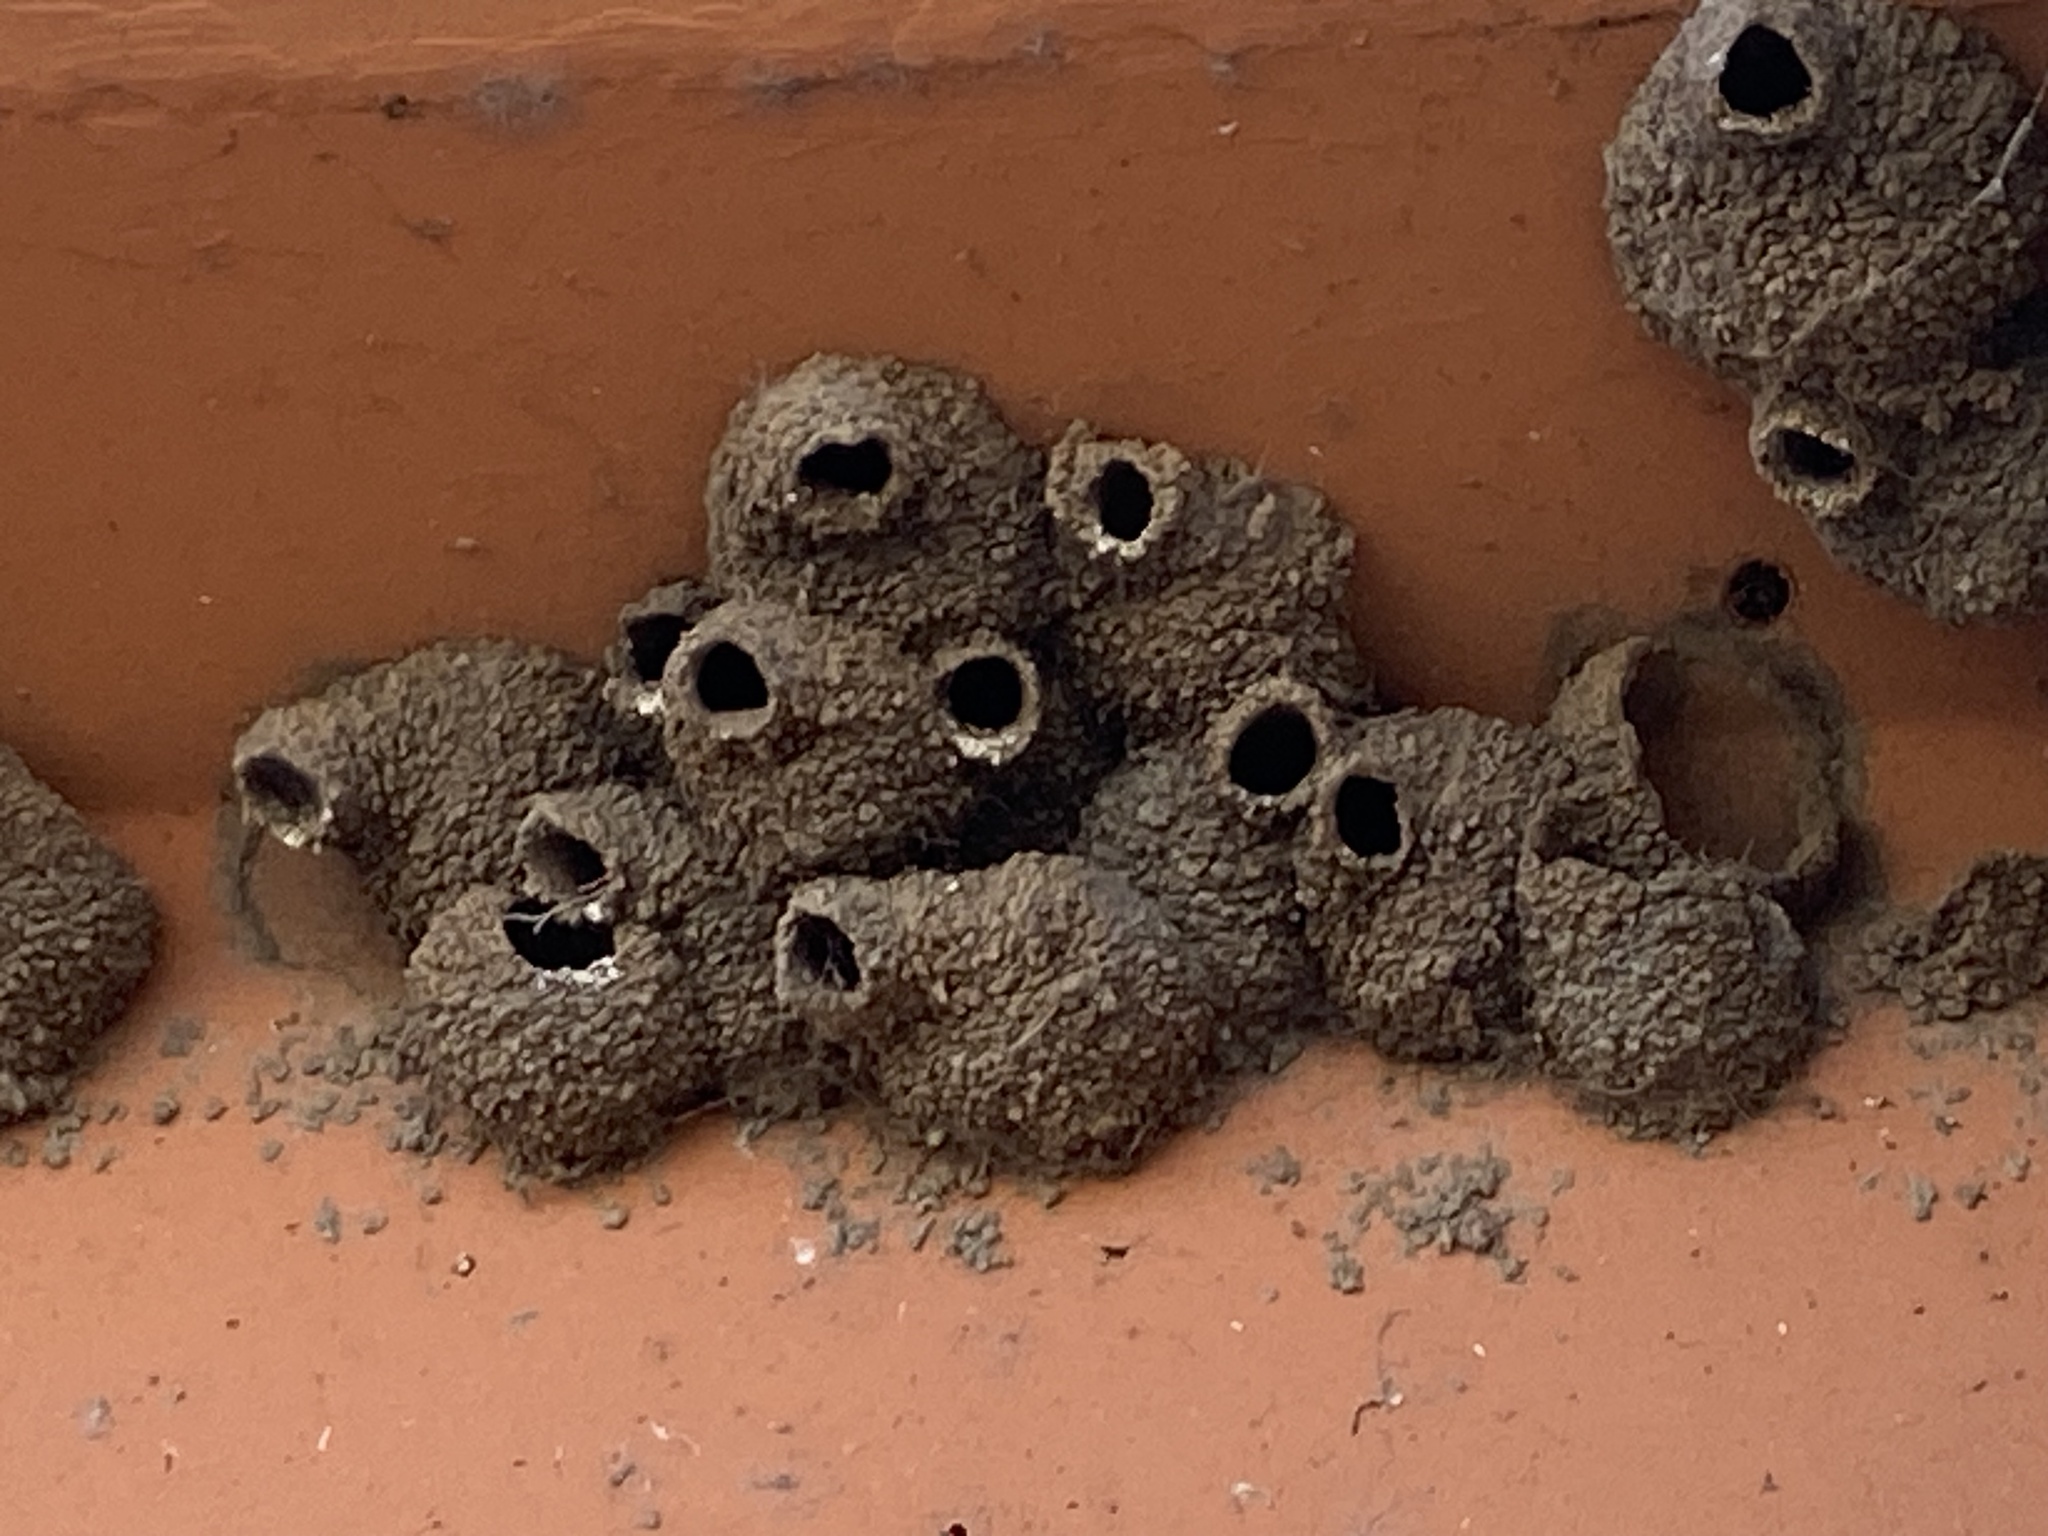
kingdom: Animalia
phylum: Chordata
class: Aves
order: Passeriformes
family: Hirundinidae
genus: Petrochelidon
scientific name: Petrochelidon pyrrhonota
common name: American cliff swallow
